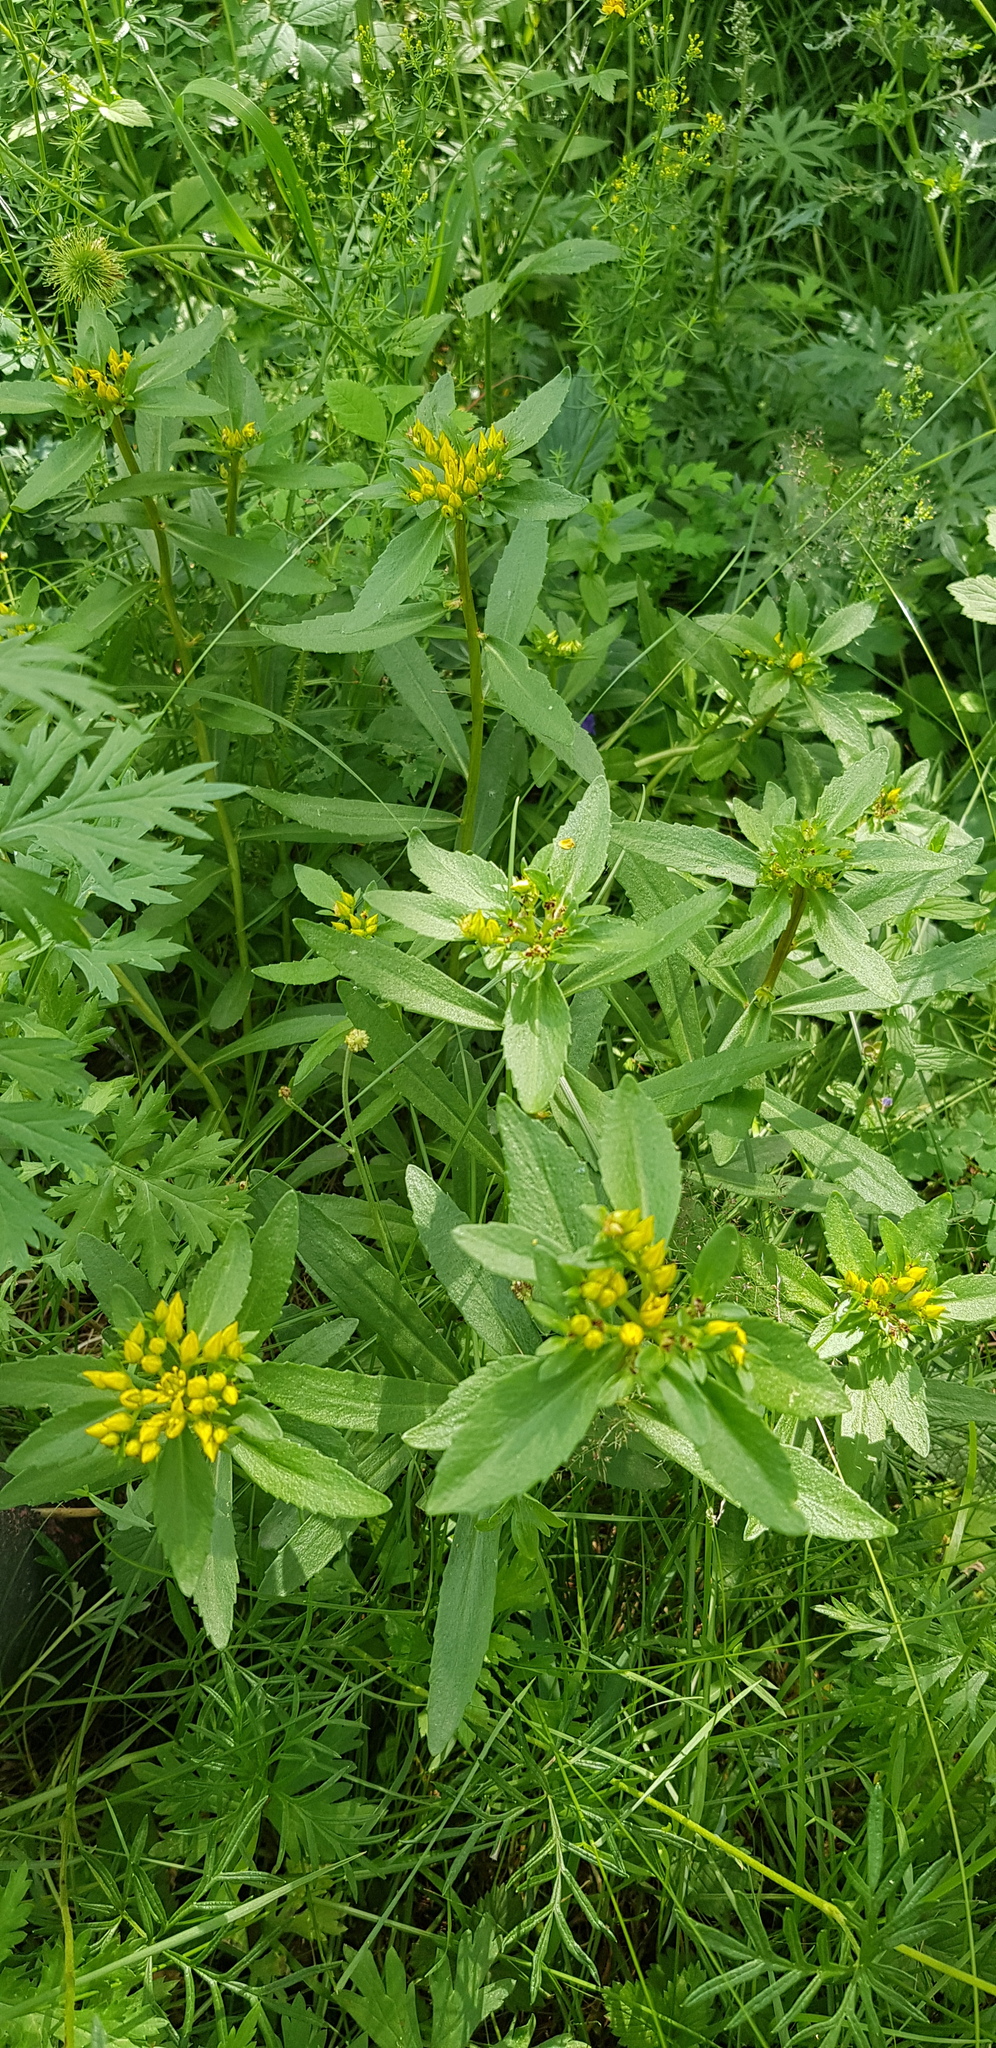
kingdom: Plantae
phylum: Tracheophyta
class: Magnoliopsida
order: Saxifragales
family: Crassulaceae
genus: Phedimus
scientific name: Phedimus aizoon
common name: Orpin aizoon
